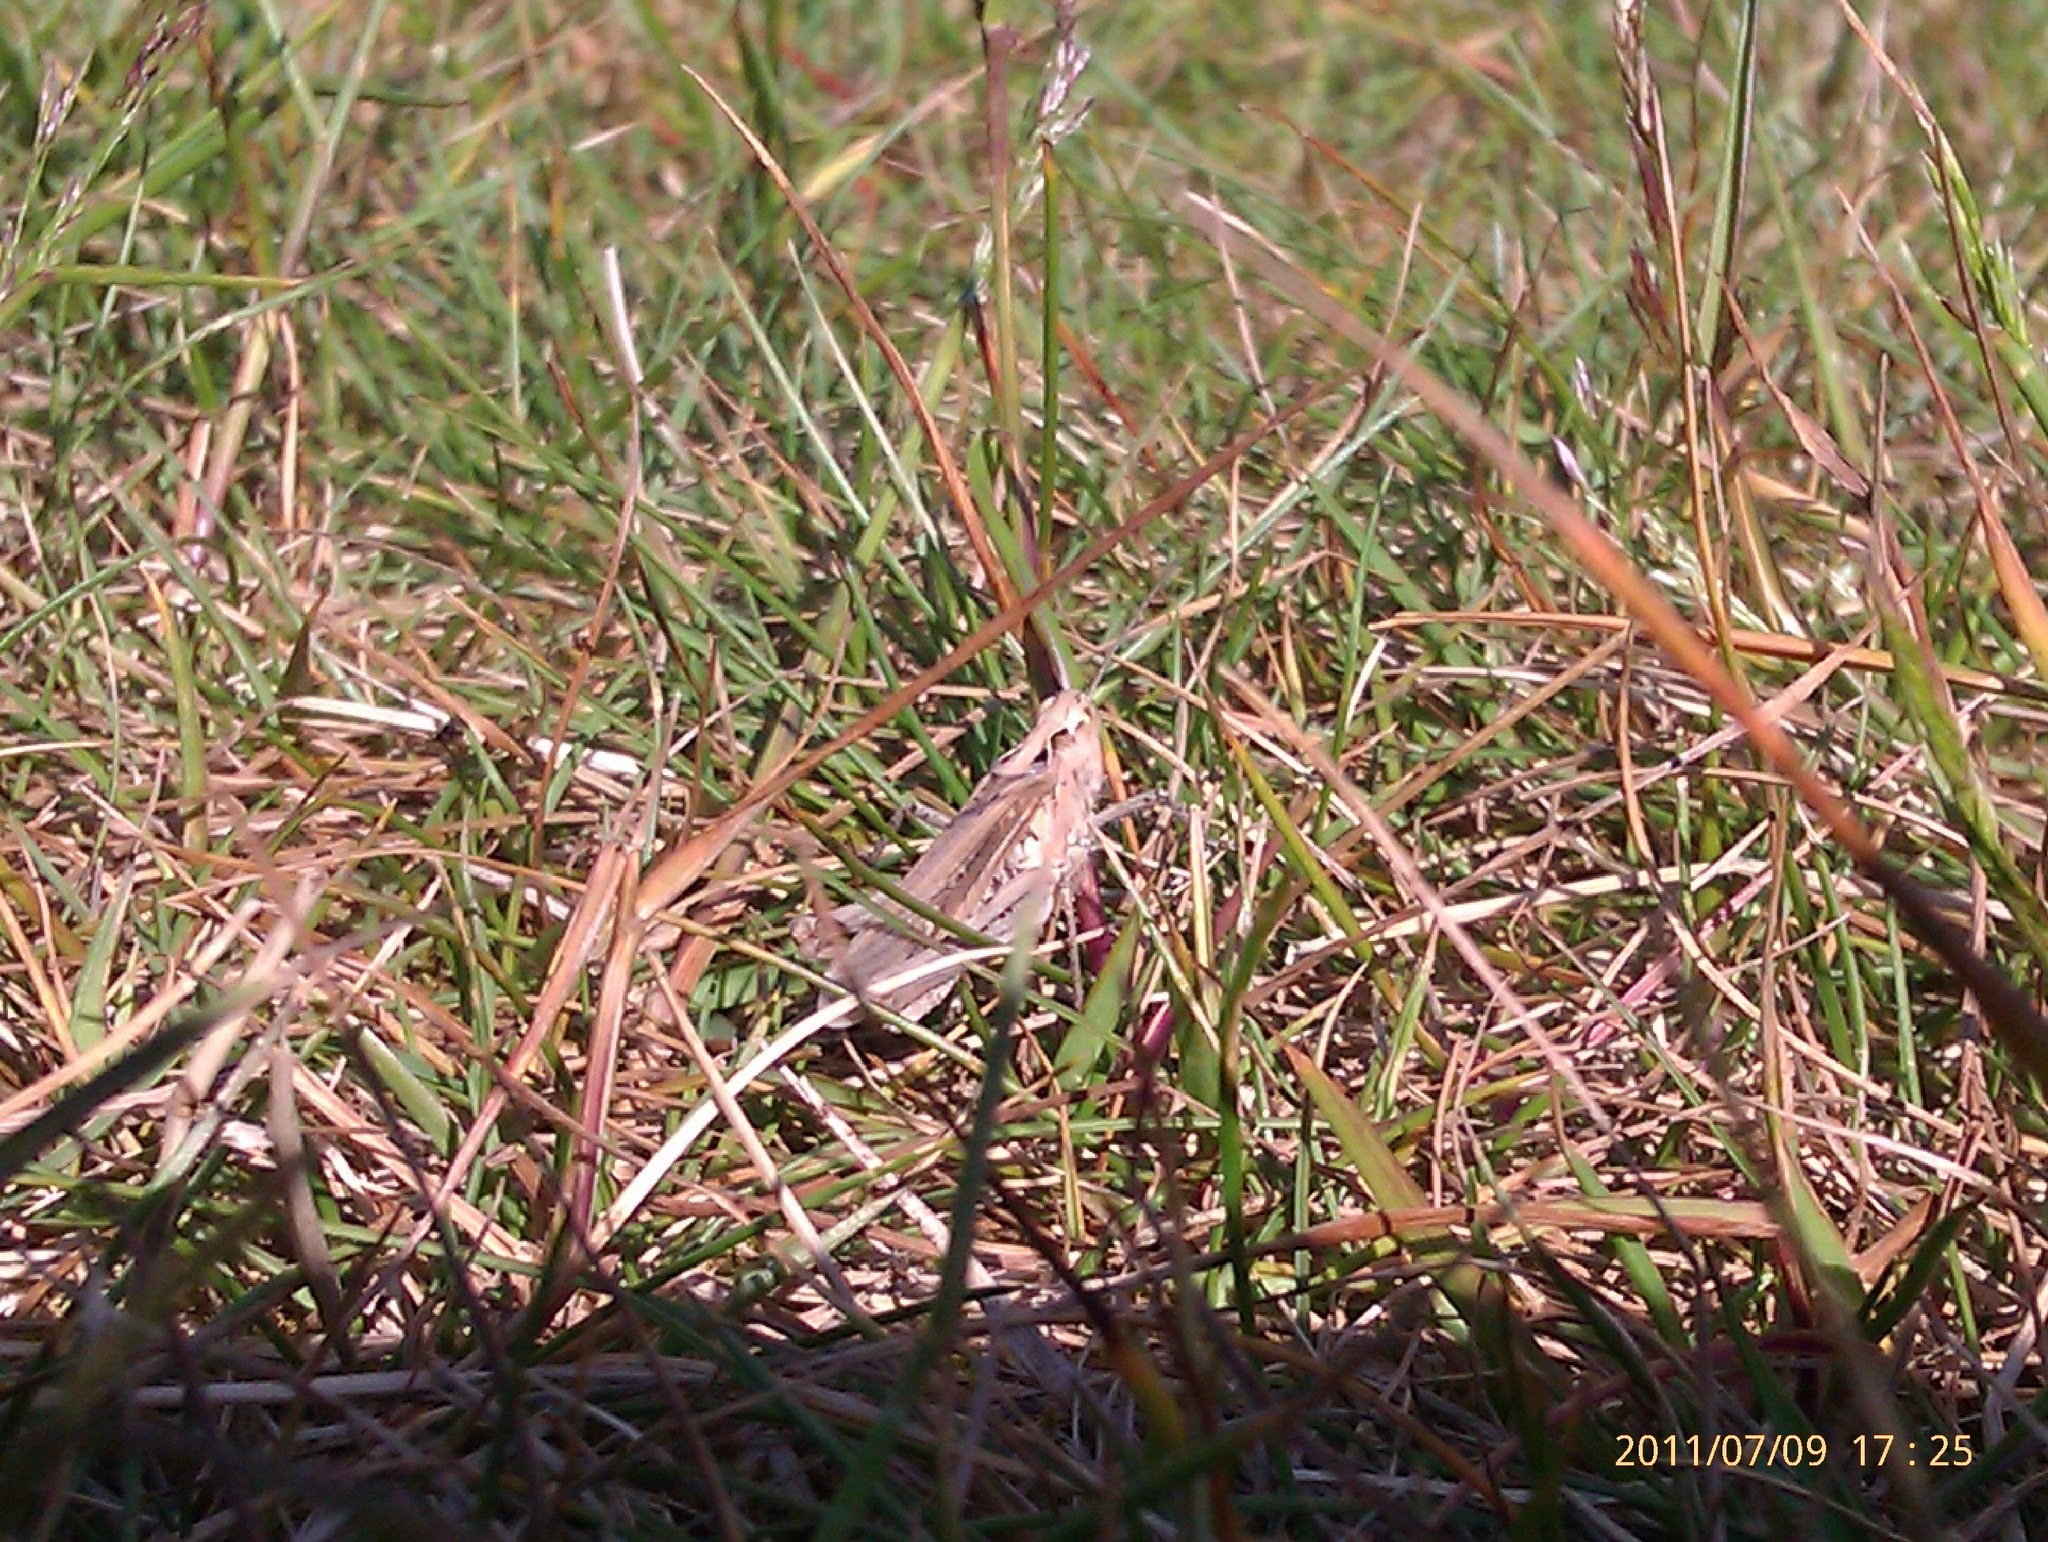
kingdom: Animalia
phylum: Arthropoda
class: Insecta
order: Orthoptera
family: Acrididae
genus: Chorthippus
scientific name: Chorthippus brunneus
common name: Field grasshopper
